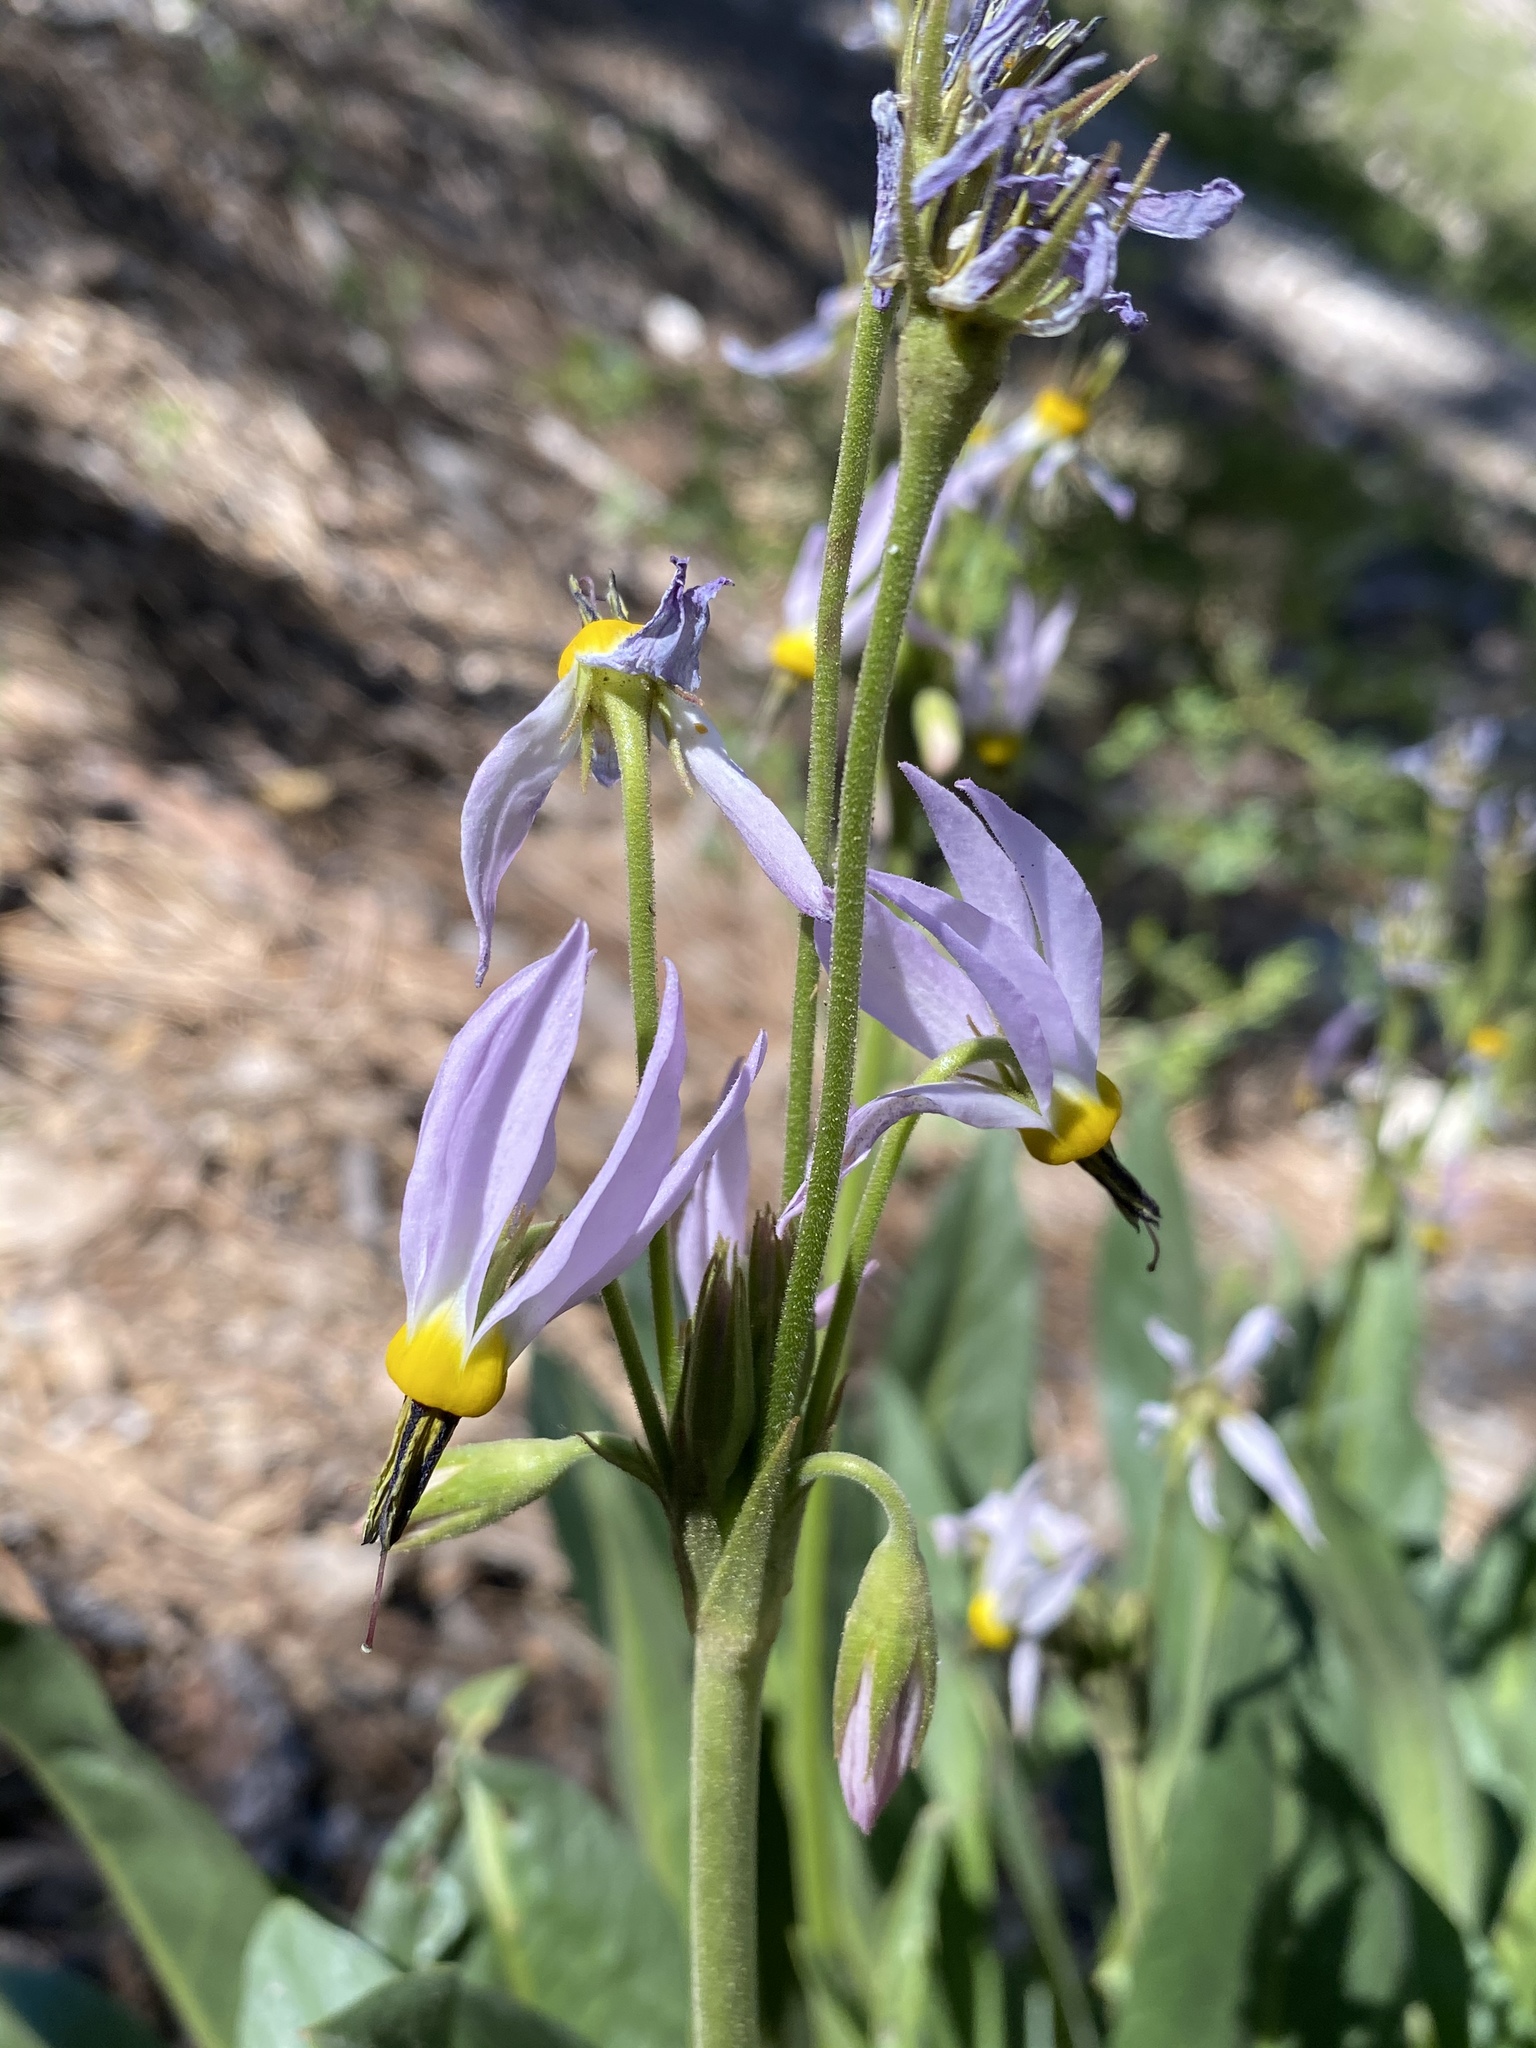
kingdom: Plantae
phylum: Tracheophyta
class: Magnoliopsida
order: Ericales
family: Primulaceae
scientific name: Primulaceae
